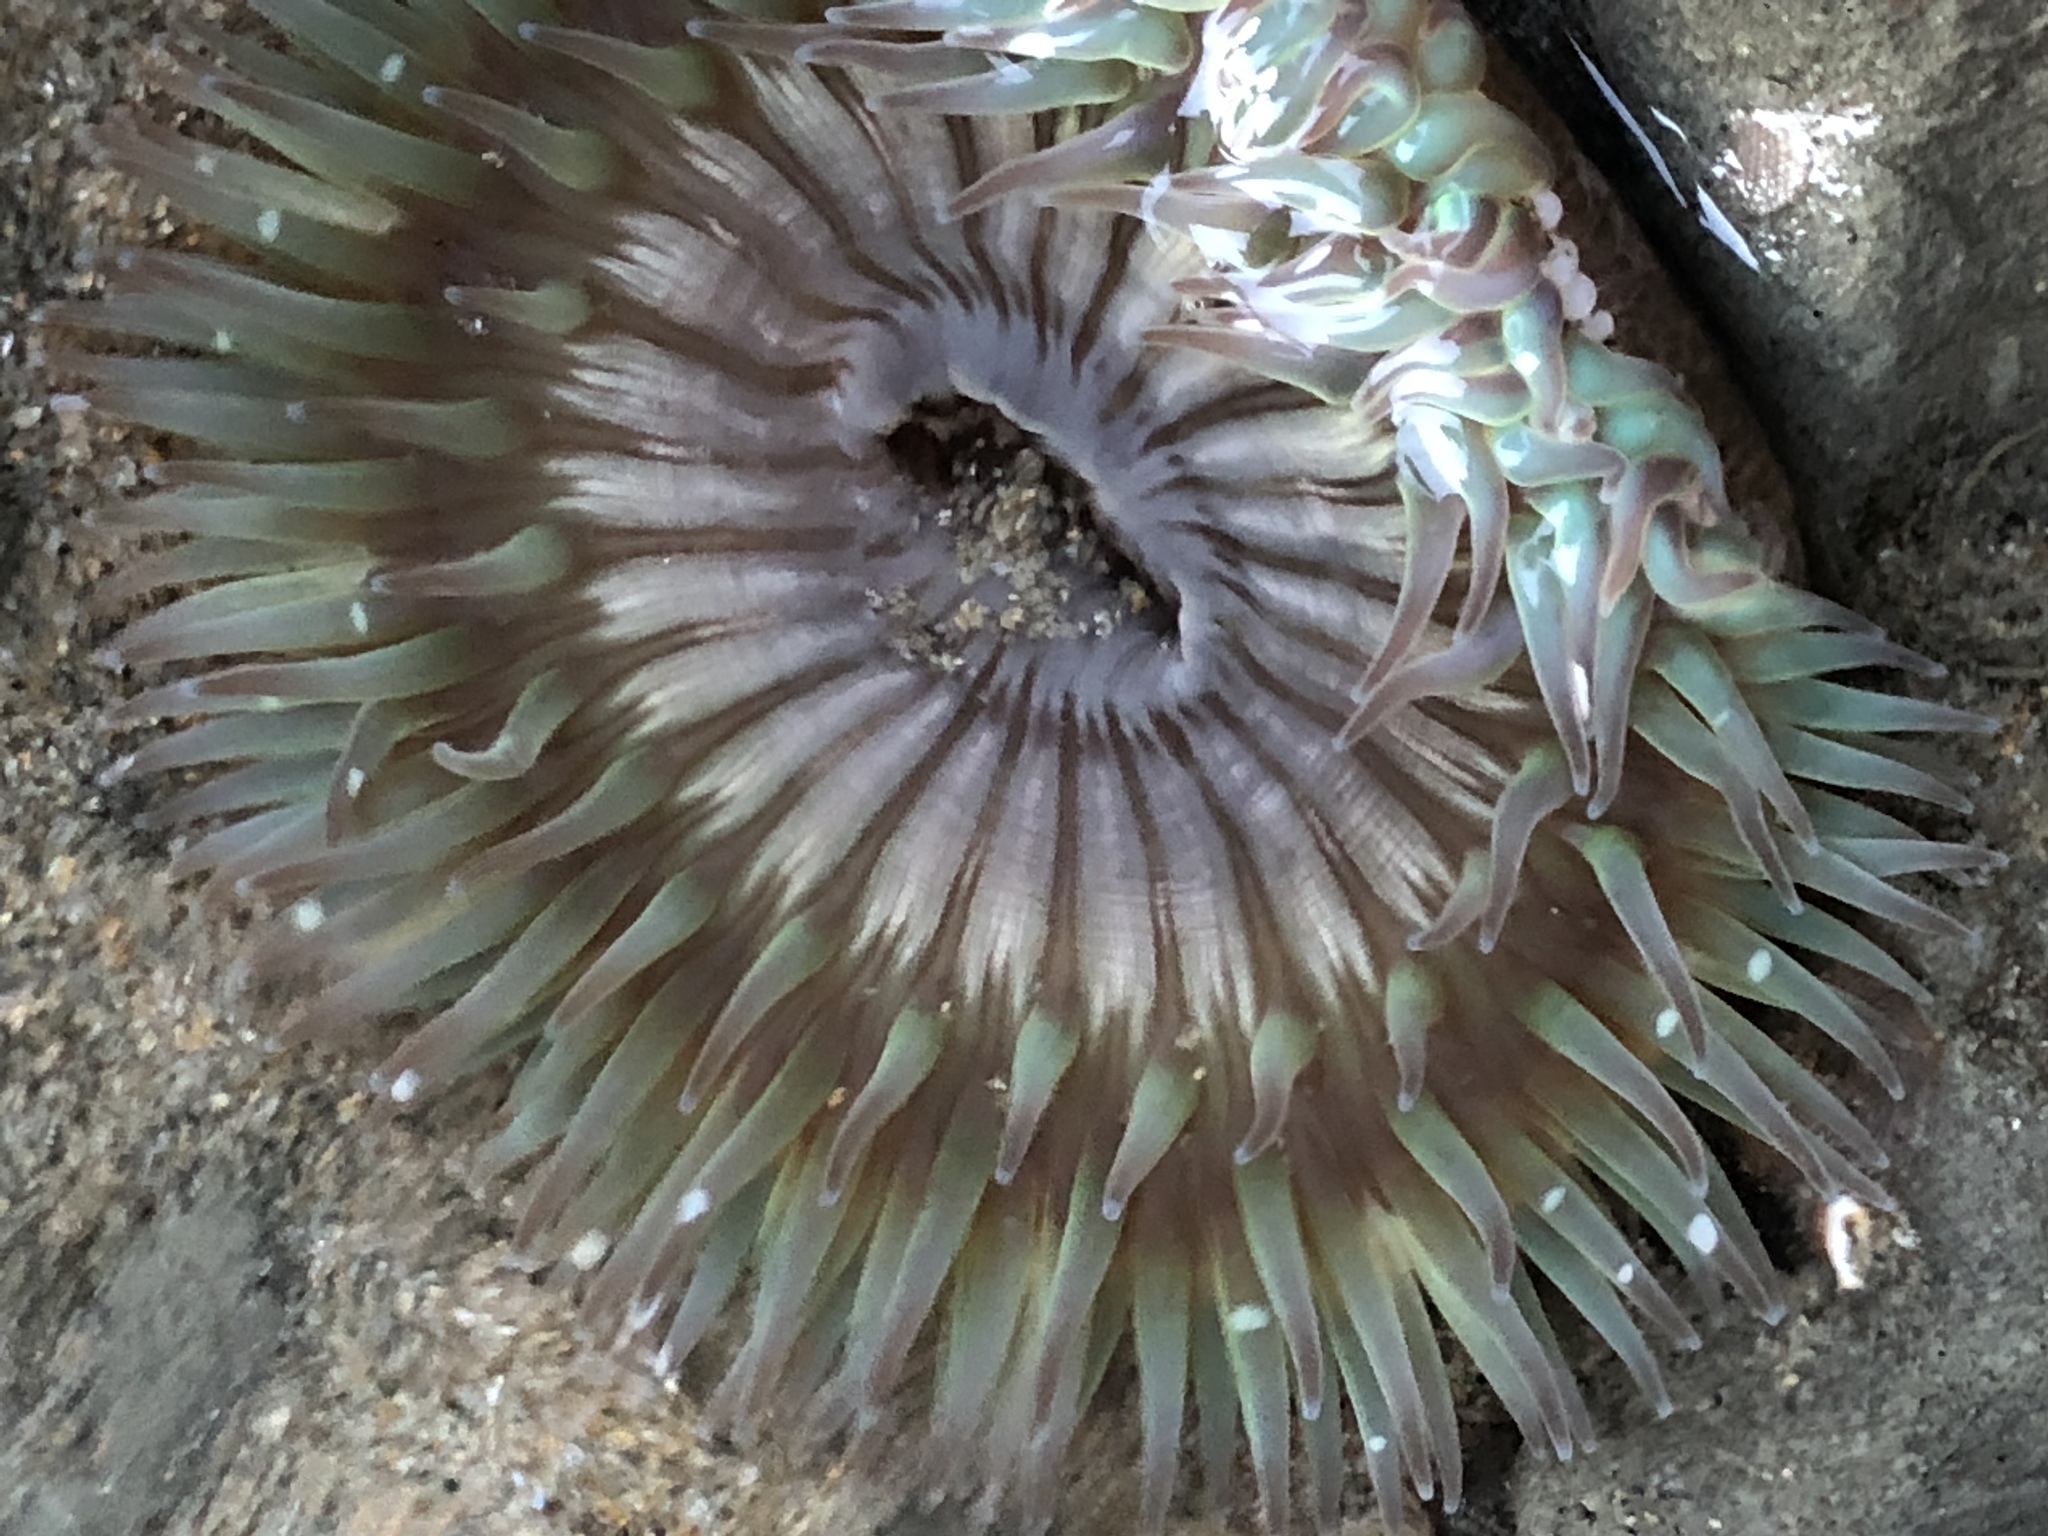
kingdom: Animalia
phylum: Cnidaria
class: Anthozoa
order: Actiniaria
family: Actiniidae
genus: Anthopleura
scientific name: Anthopleura sola
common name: Sun anemone
